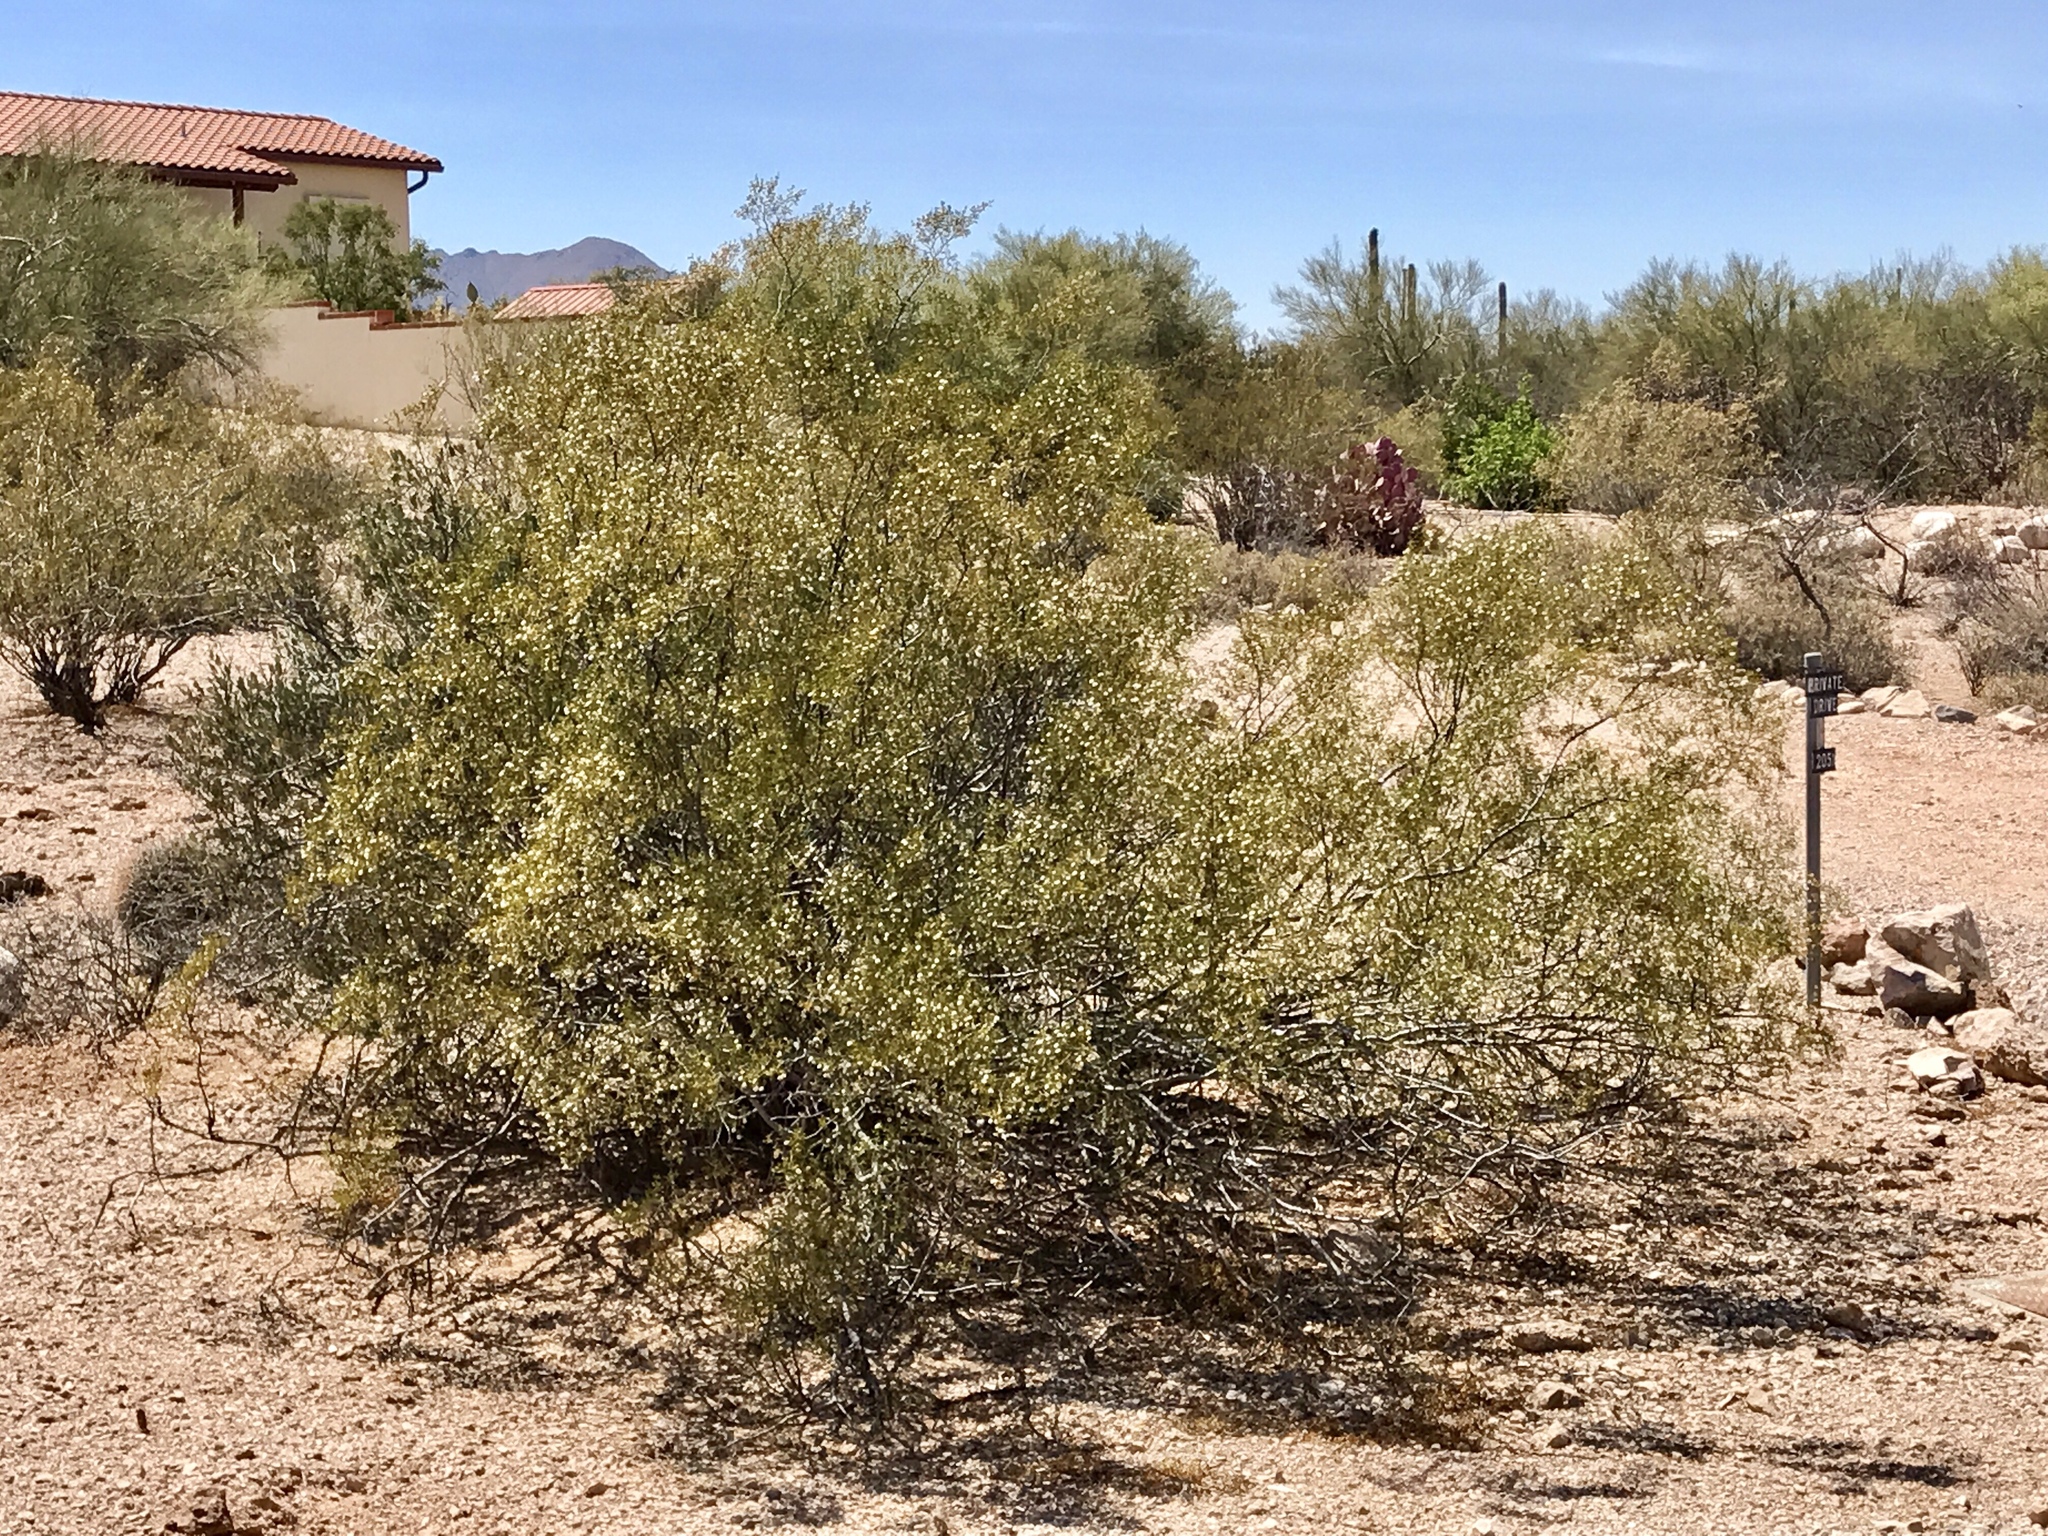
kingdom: Plantae
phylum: Tracheophyta
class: Magnoliopsida
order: Zygophyllales
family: Zygophyllaceae
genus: Larrea
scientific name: Larrea tridentata
